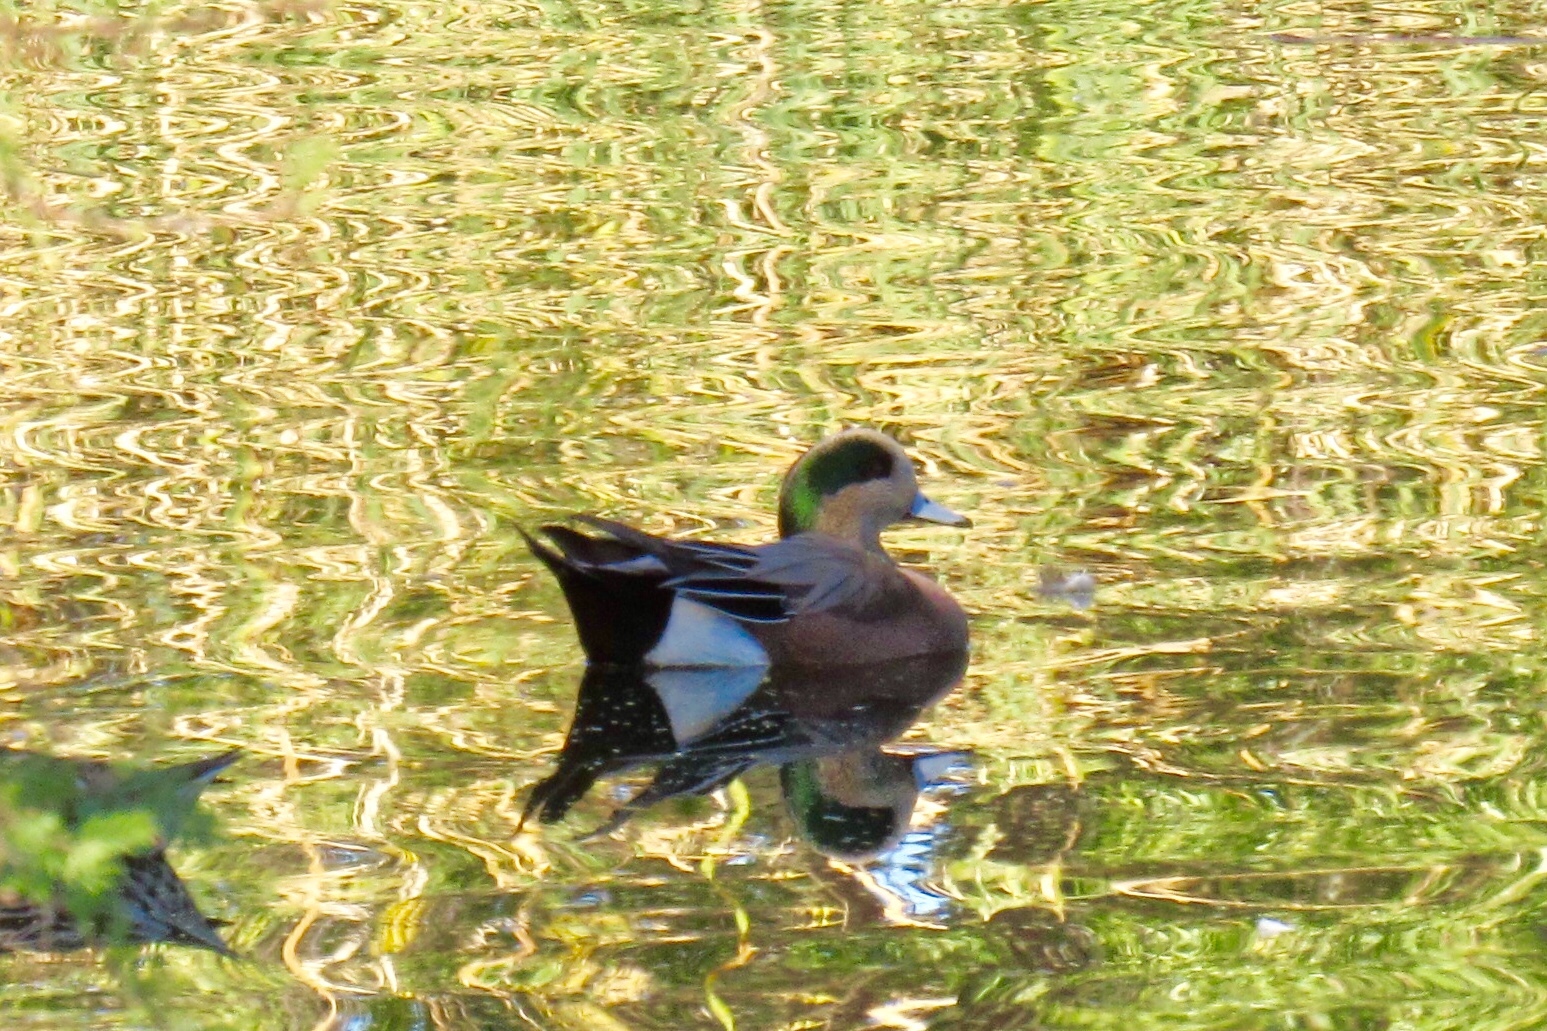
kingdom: Animalia
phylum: Chordata
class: Aves
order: Anseriformes
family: Anatidae
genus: Mareca
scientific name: Mareca americana
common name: American wigeon
